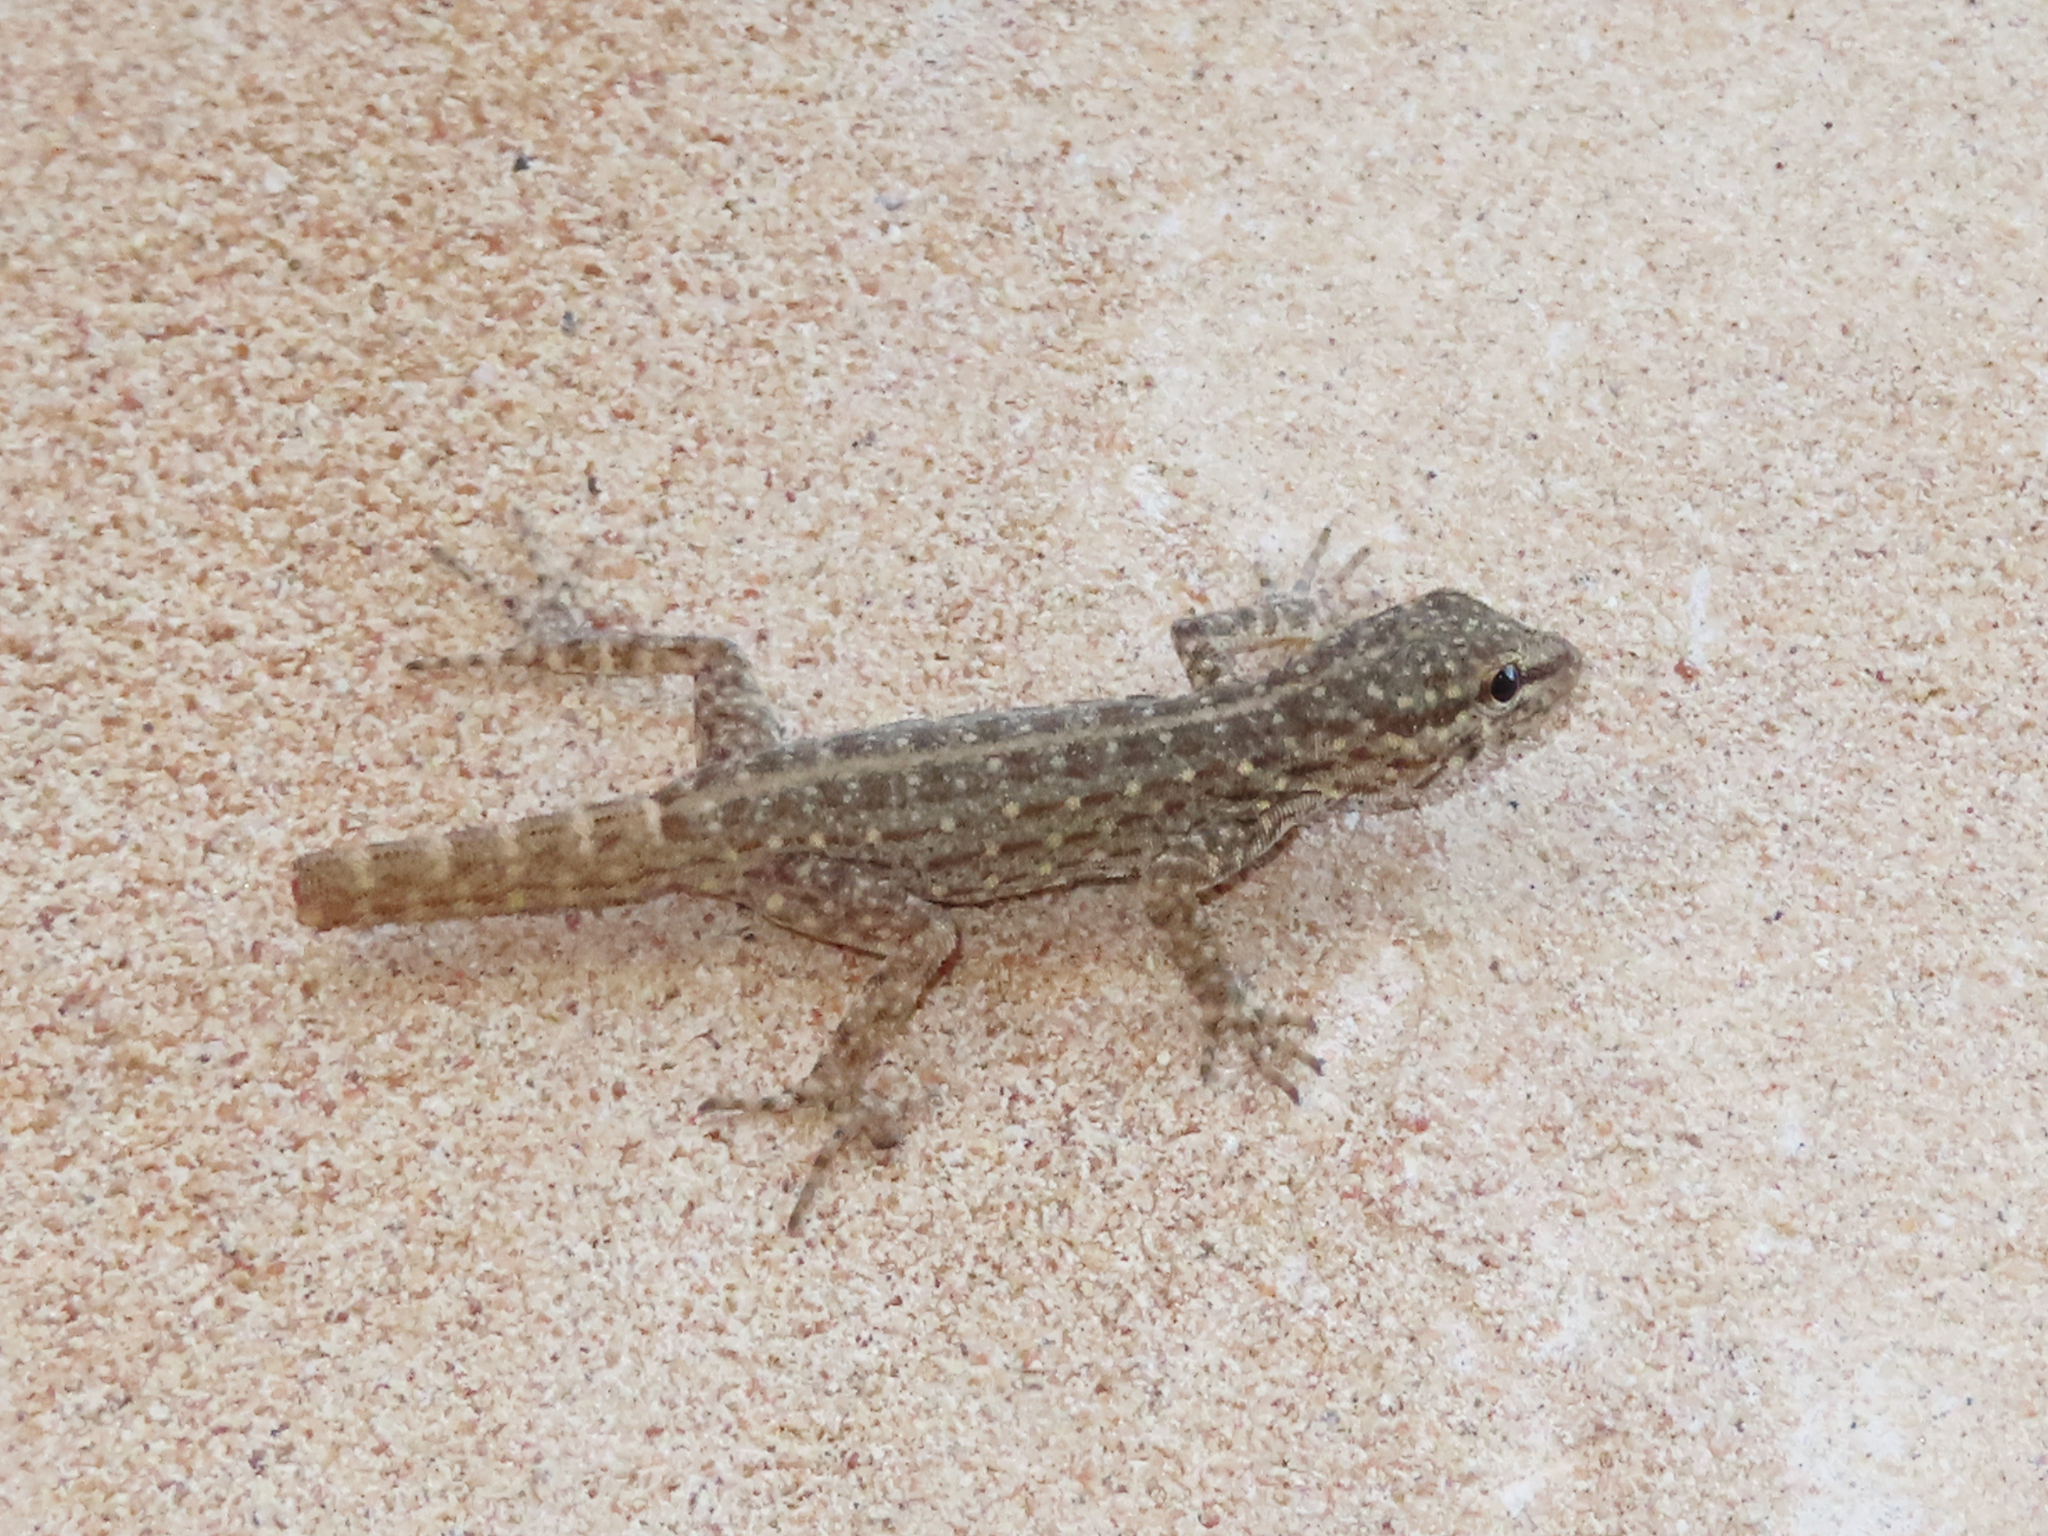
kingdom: Animalia
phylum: Chordata
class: Squamata
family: Sphaerodactylidae
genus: Pristurus
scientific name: Pristurus rupestris
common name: Blanford’s semaphore gecko
